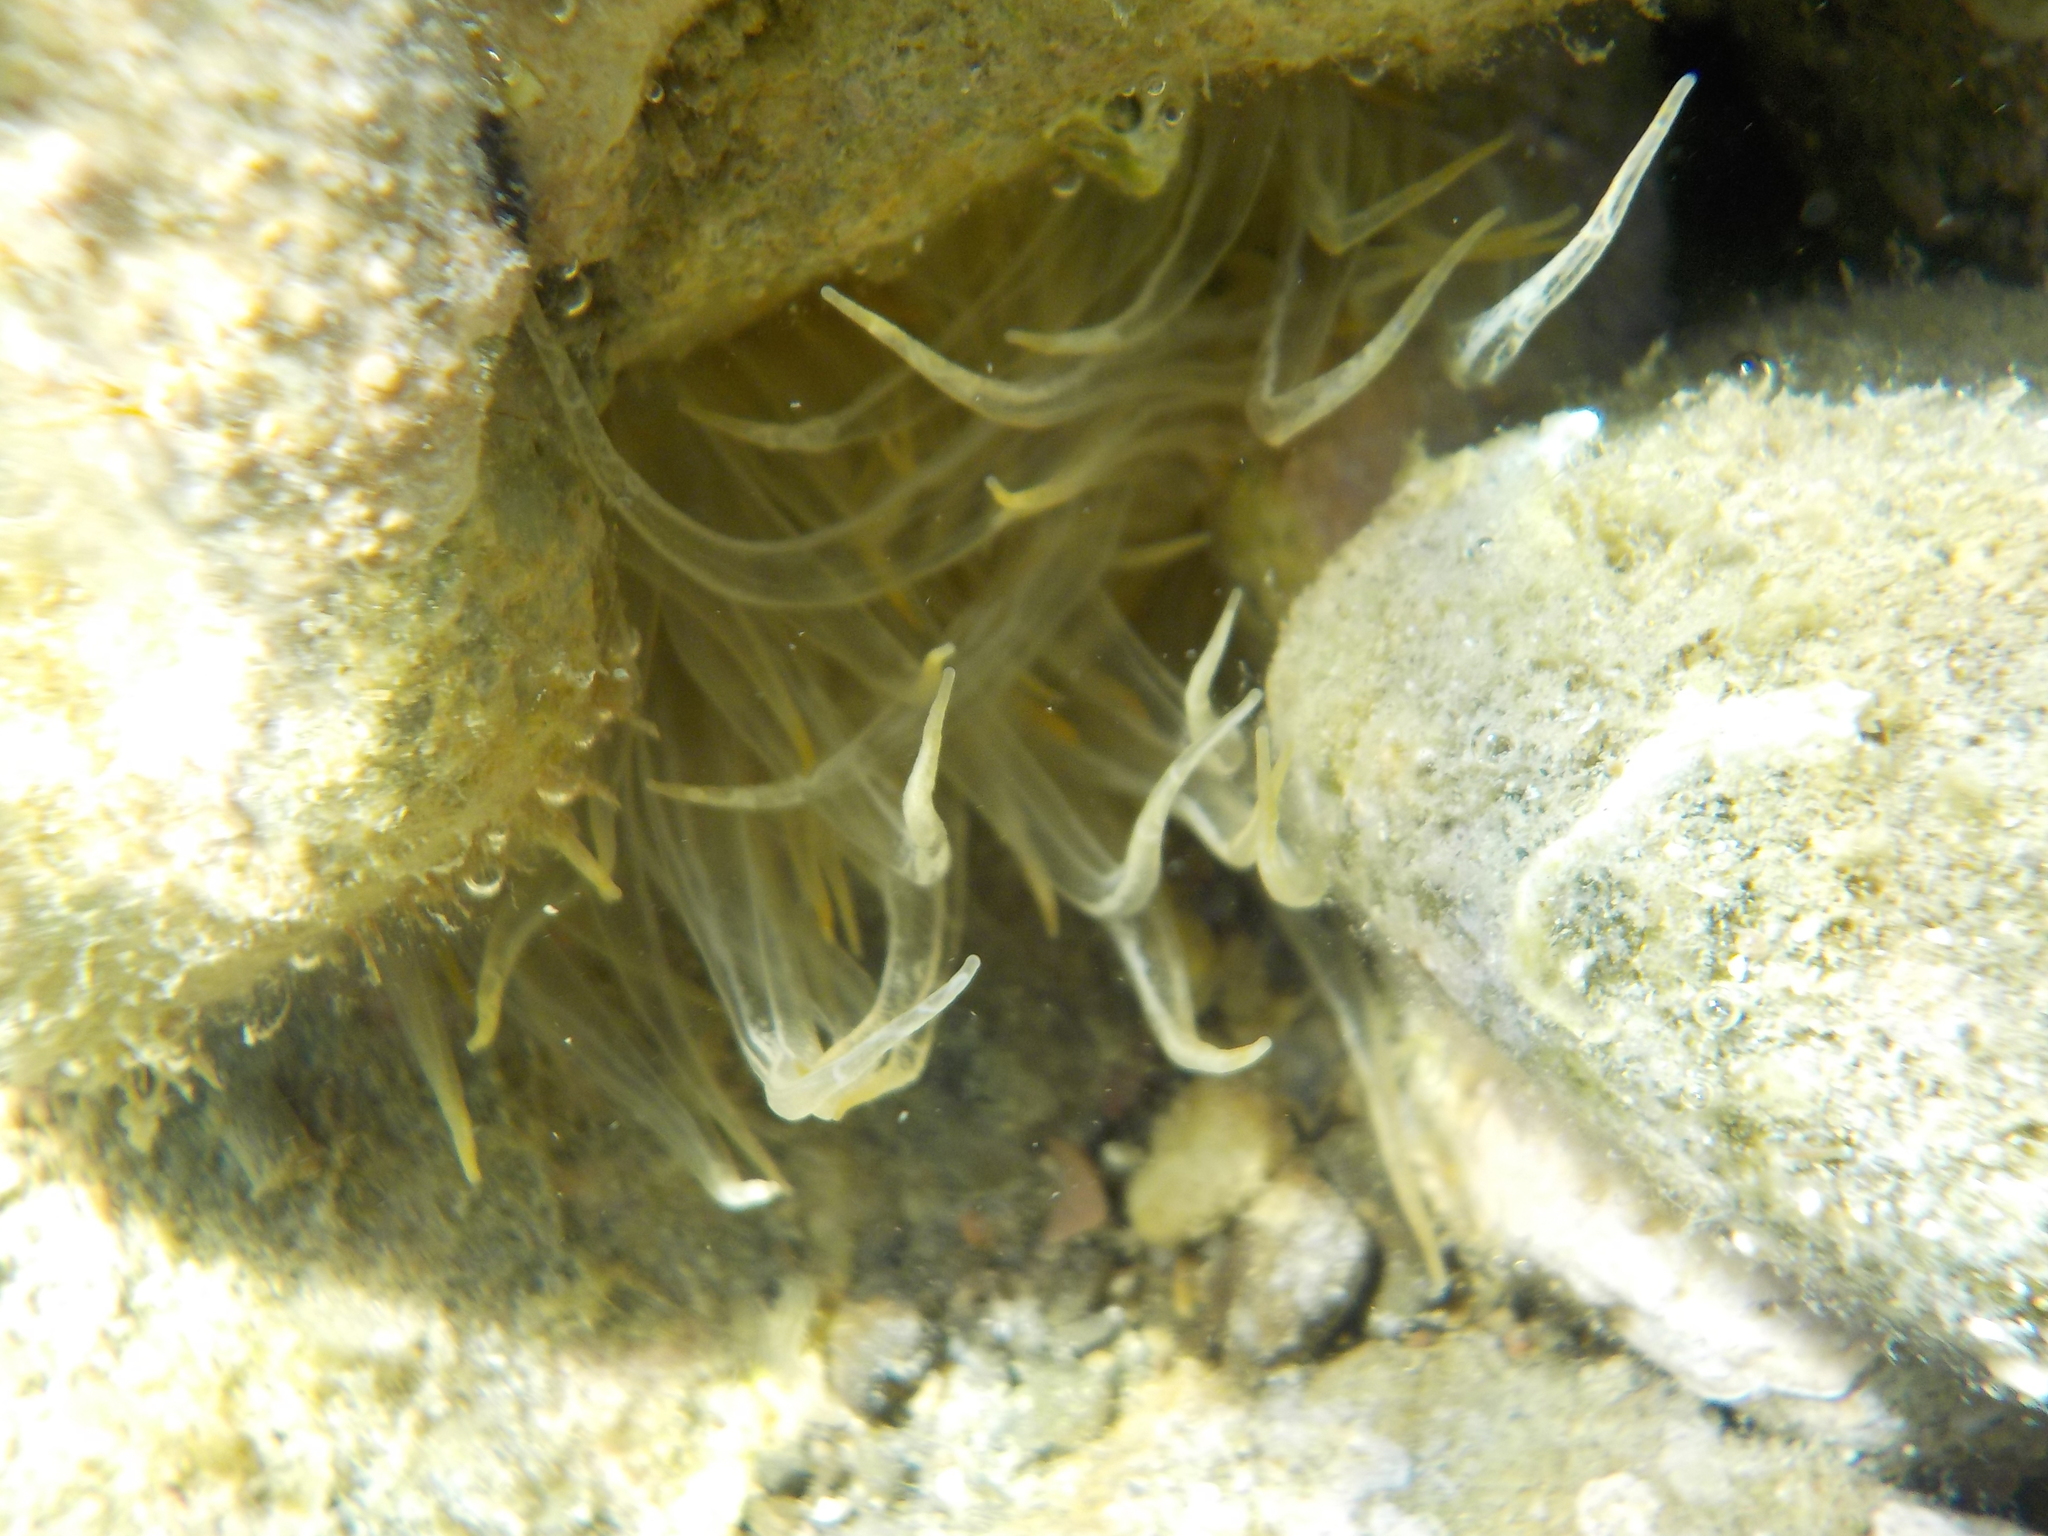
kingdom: Animalia
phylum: Cnidaria
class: Anthozoa
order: Actiniaria
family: Aiptasiidae
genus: Aiptasia
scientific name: Aiptasia mutabilis
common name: Trumpet anemone
